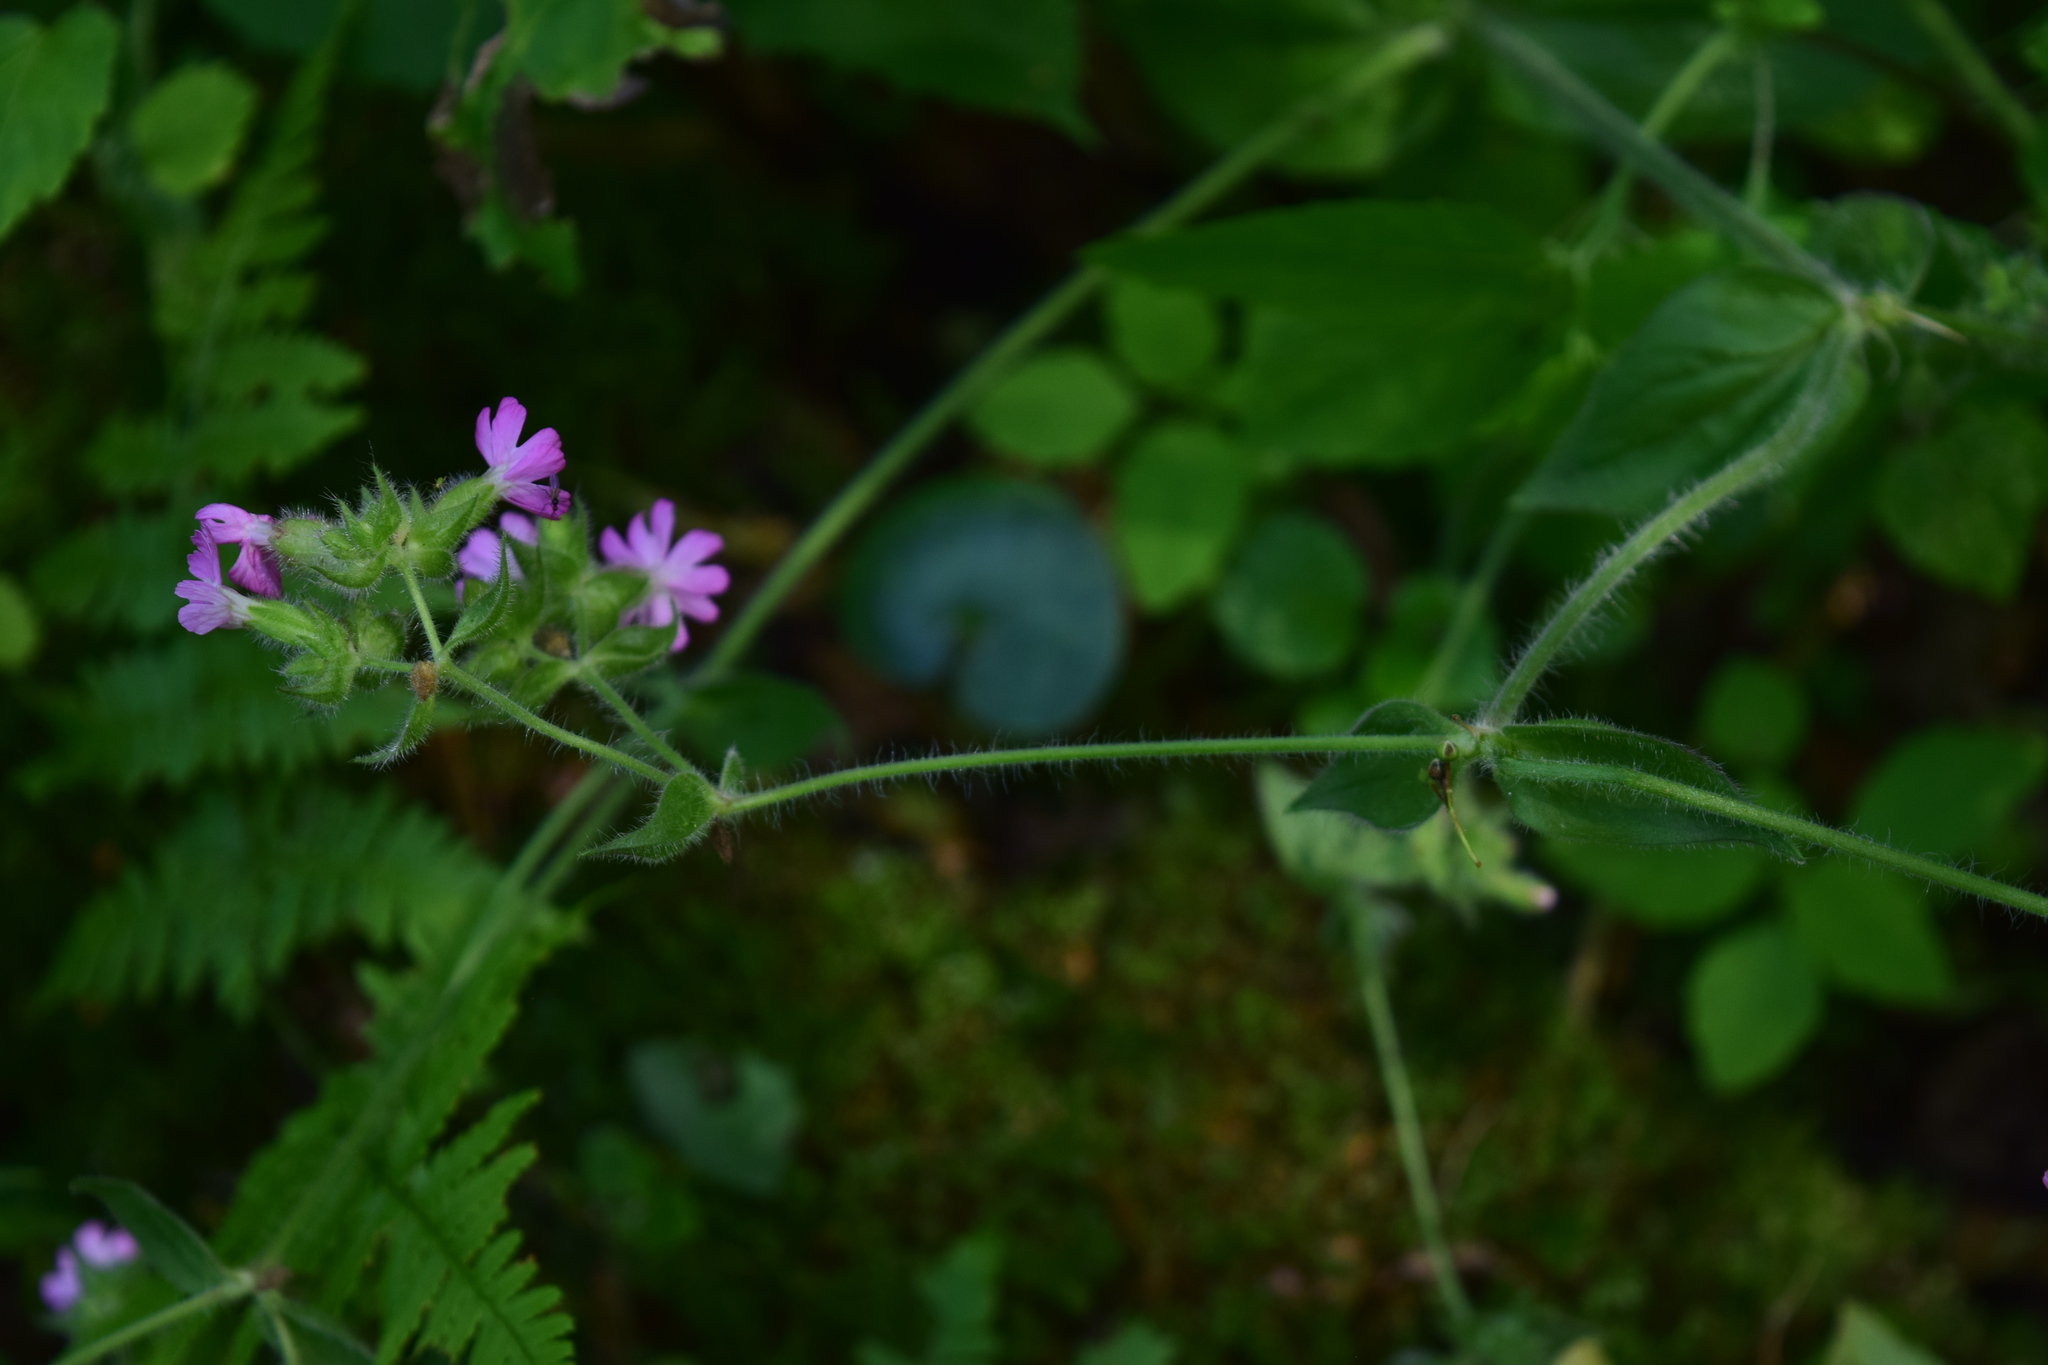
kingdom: Plantae
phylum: Tracheophyta
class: Magnoliopsida
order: Caryophyllales
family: Caryophyllaceae
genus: Silene
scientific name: Silene dioica
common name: Red campion
